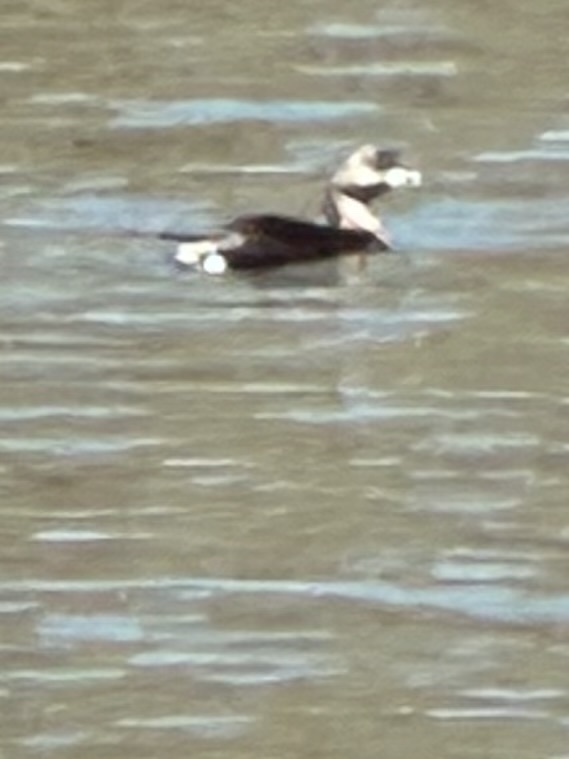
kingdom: Animalia
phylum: Chordata
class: Aves
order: Podicipediformes
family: Podicipedidae
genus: Podilymbus
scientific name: Podilymbus podiceps
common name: Pied-billed grebe
